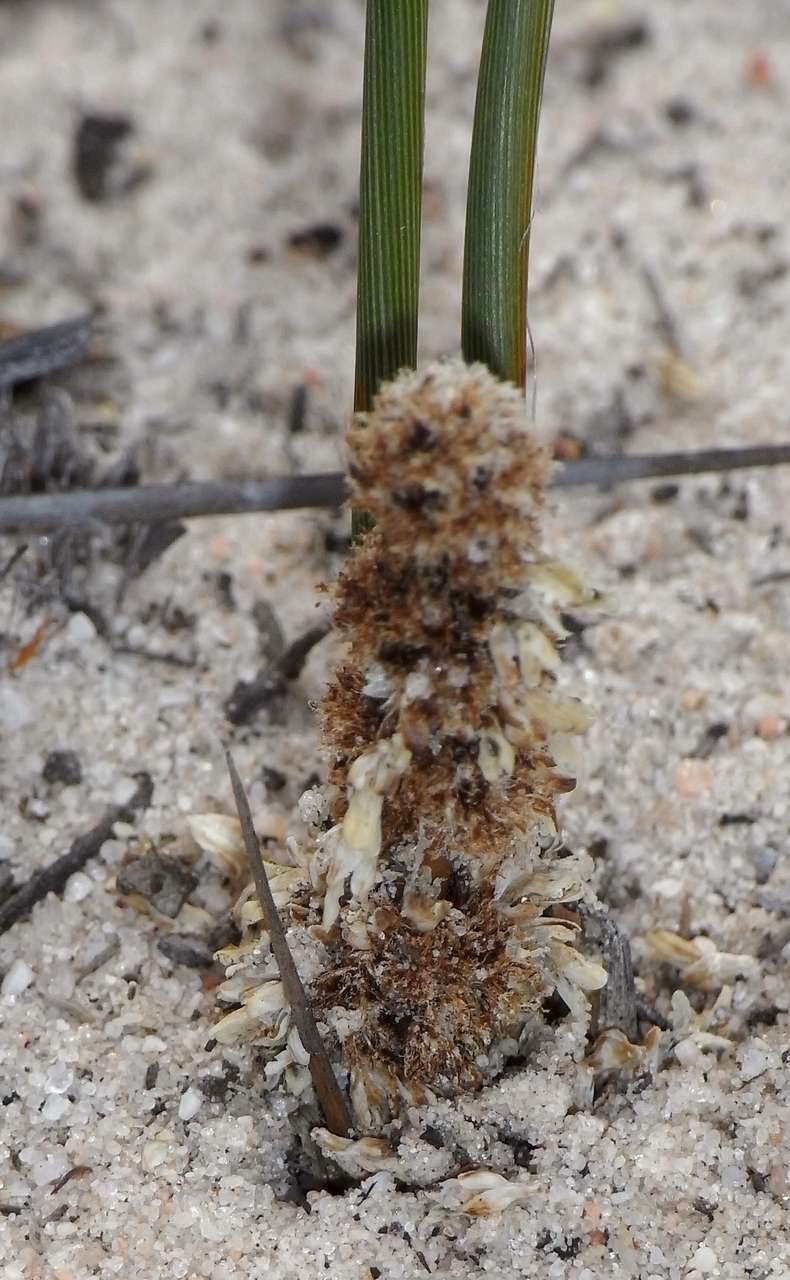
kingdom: Plantae
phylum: Tracheophyta
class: Liliopsida
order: Asparagales
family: Asparagaceae
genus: Lomandra
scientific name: Lomandra juncea
